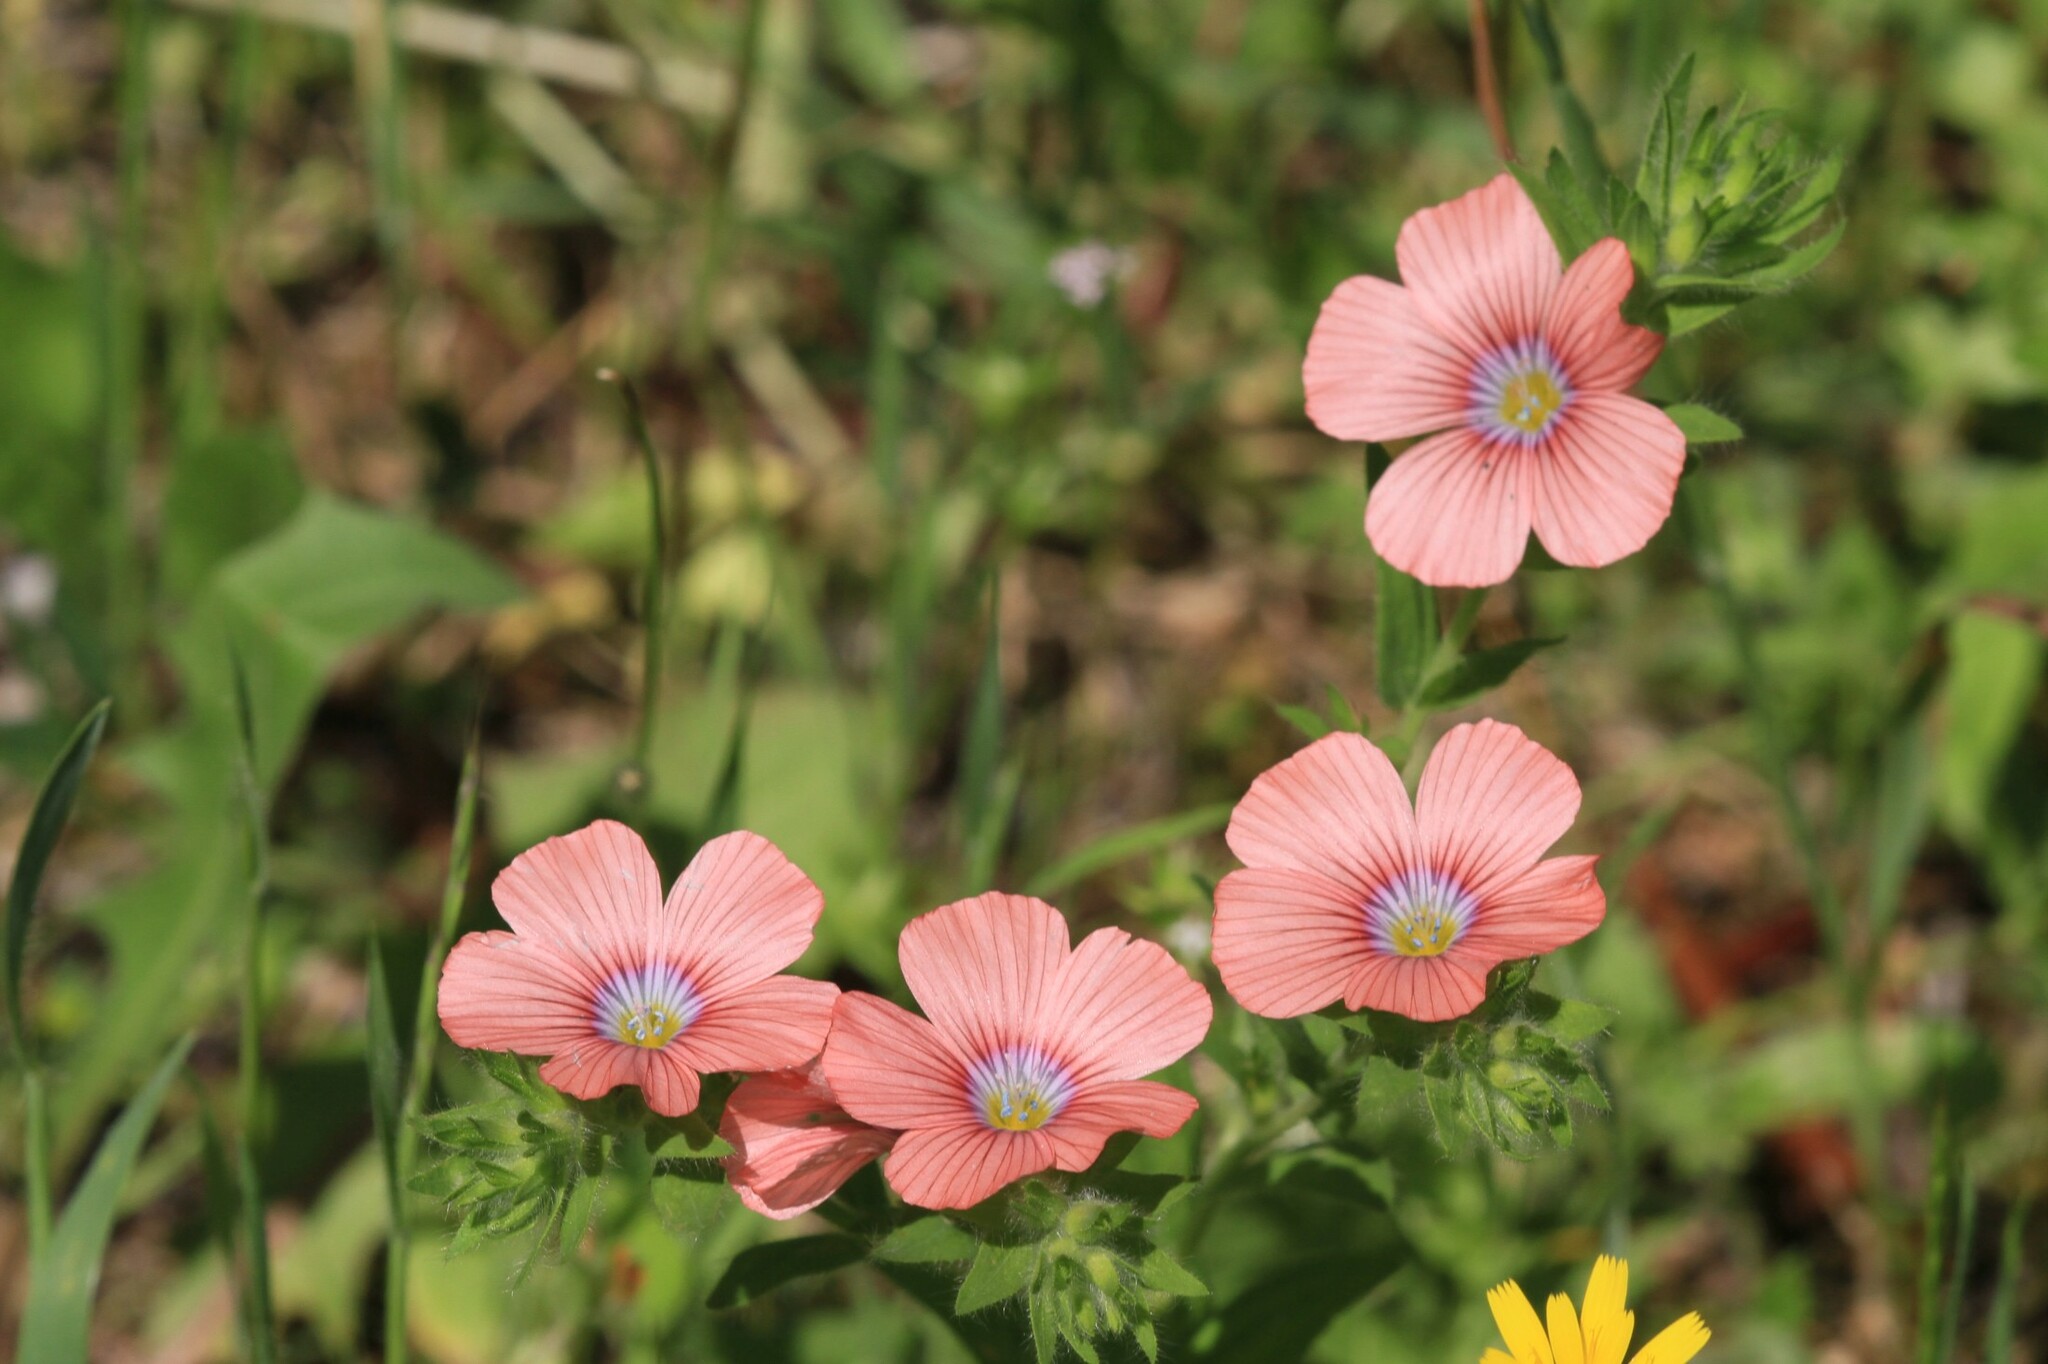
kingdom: Plantae
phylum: Tracheophyta
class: Magnoliopsida
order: Malpighiales
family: Linaceae
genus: Linum
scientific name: Linum pubescens
